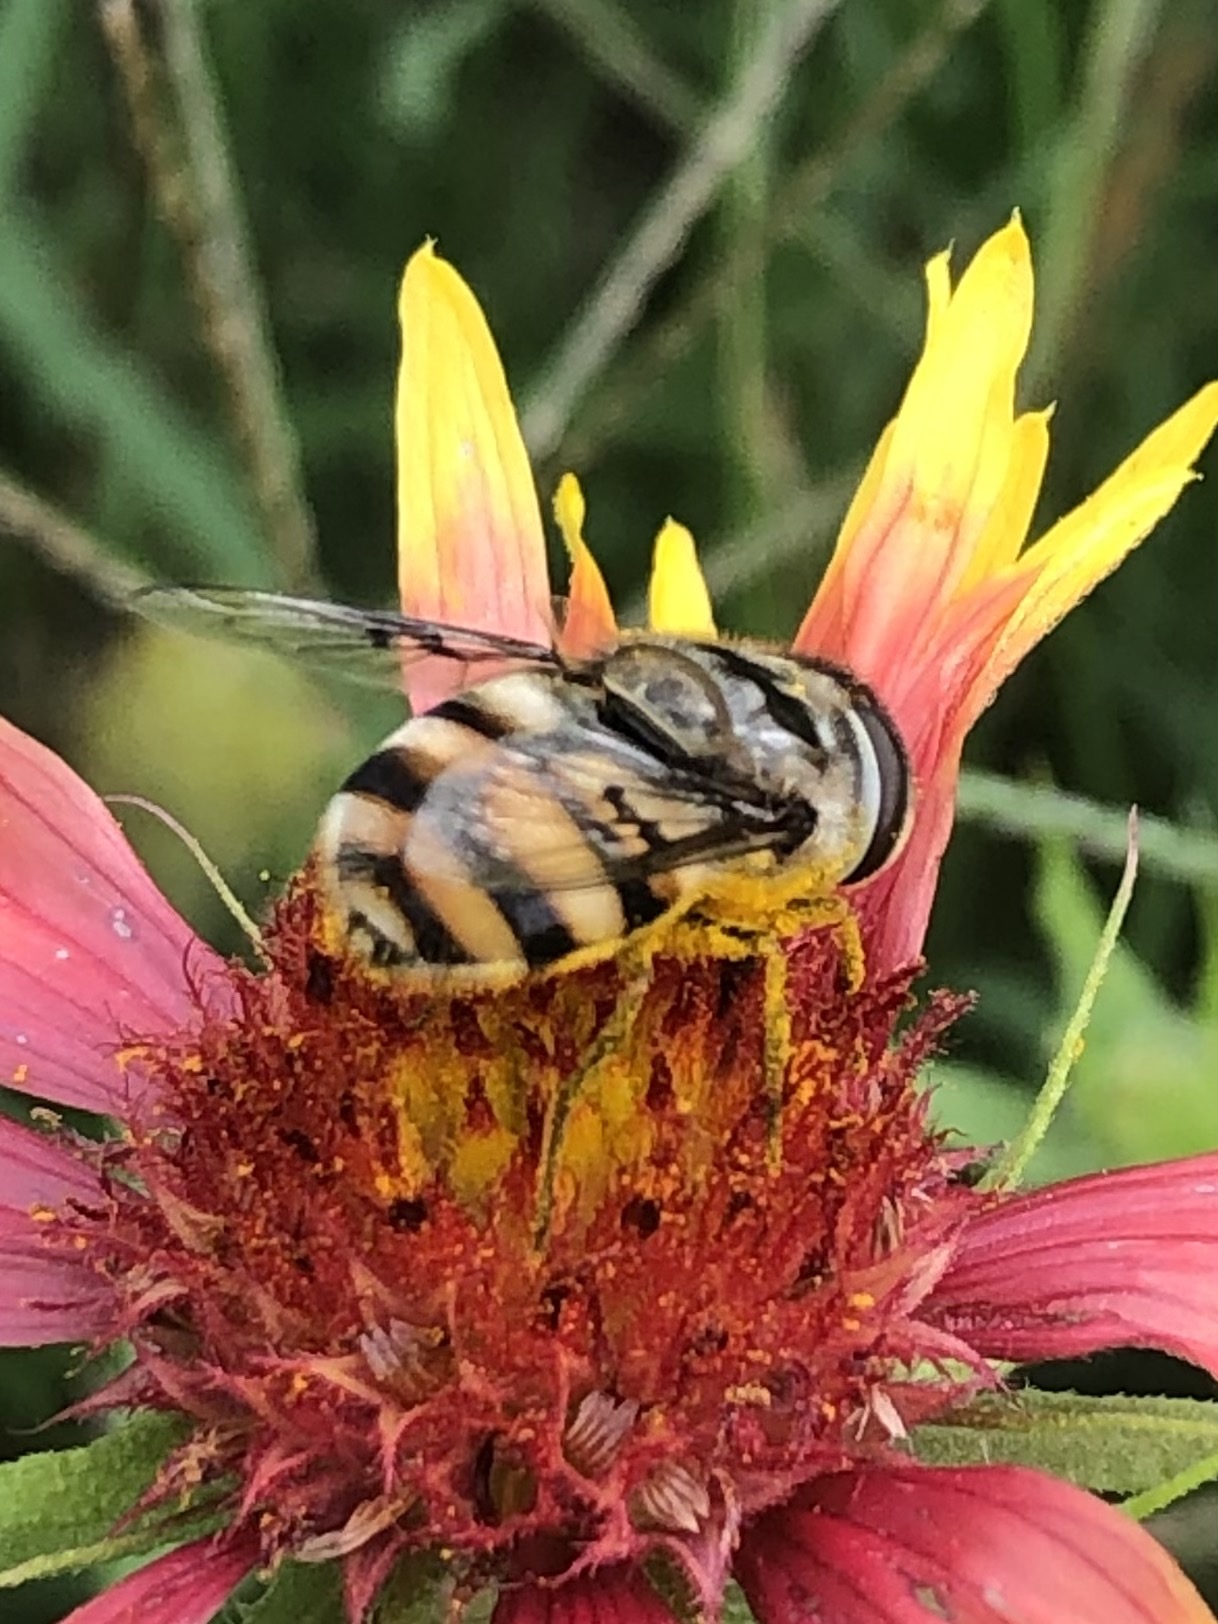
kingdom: Animalia
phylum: Arthropoda
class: Insecta
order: Diptera
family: Syrphidae
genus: Copestylum
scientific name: Copestylum avidum
